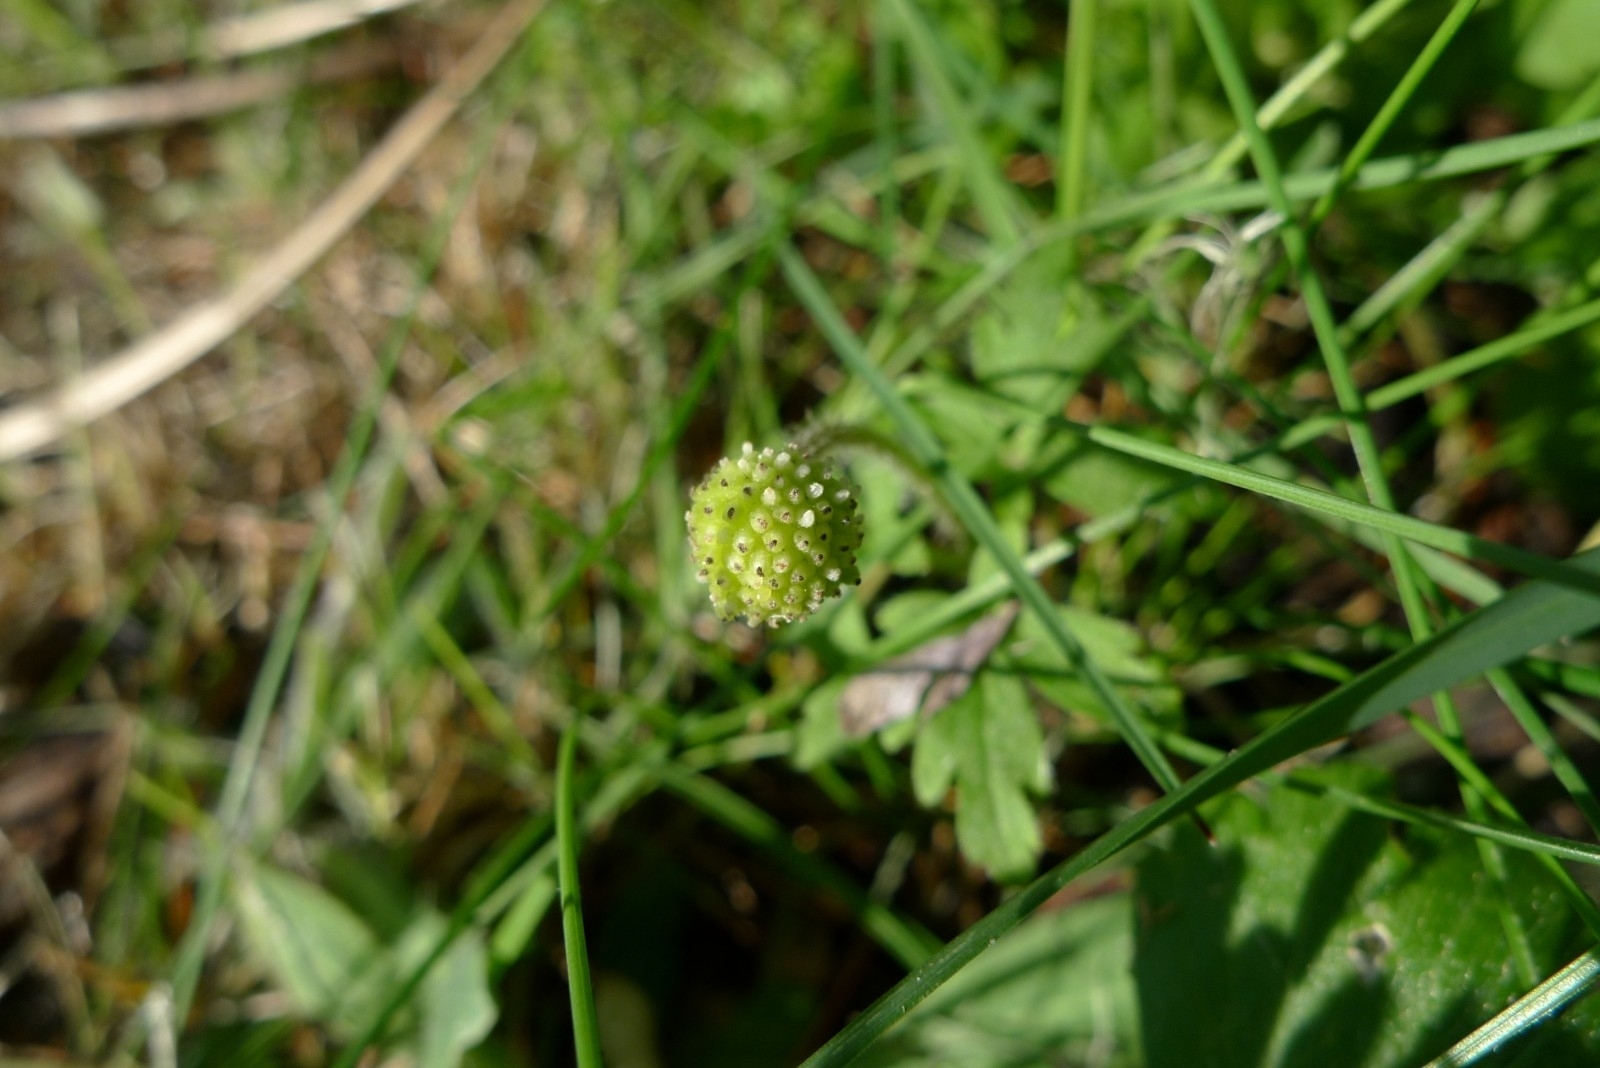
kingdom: Plantae
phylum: Tracheophyta
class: Magnoliopsida
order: Ranunculales
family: Ranunculaceae
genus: Anemone
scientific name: Anemone blanda
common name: Balkan anemone
